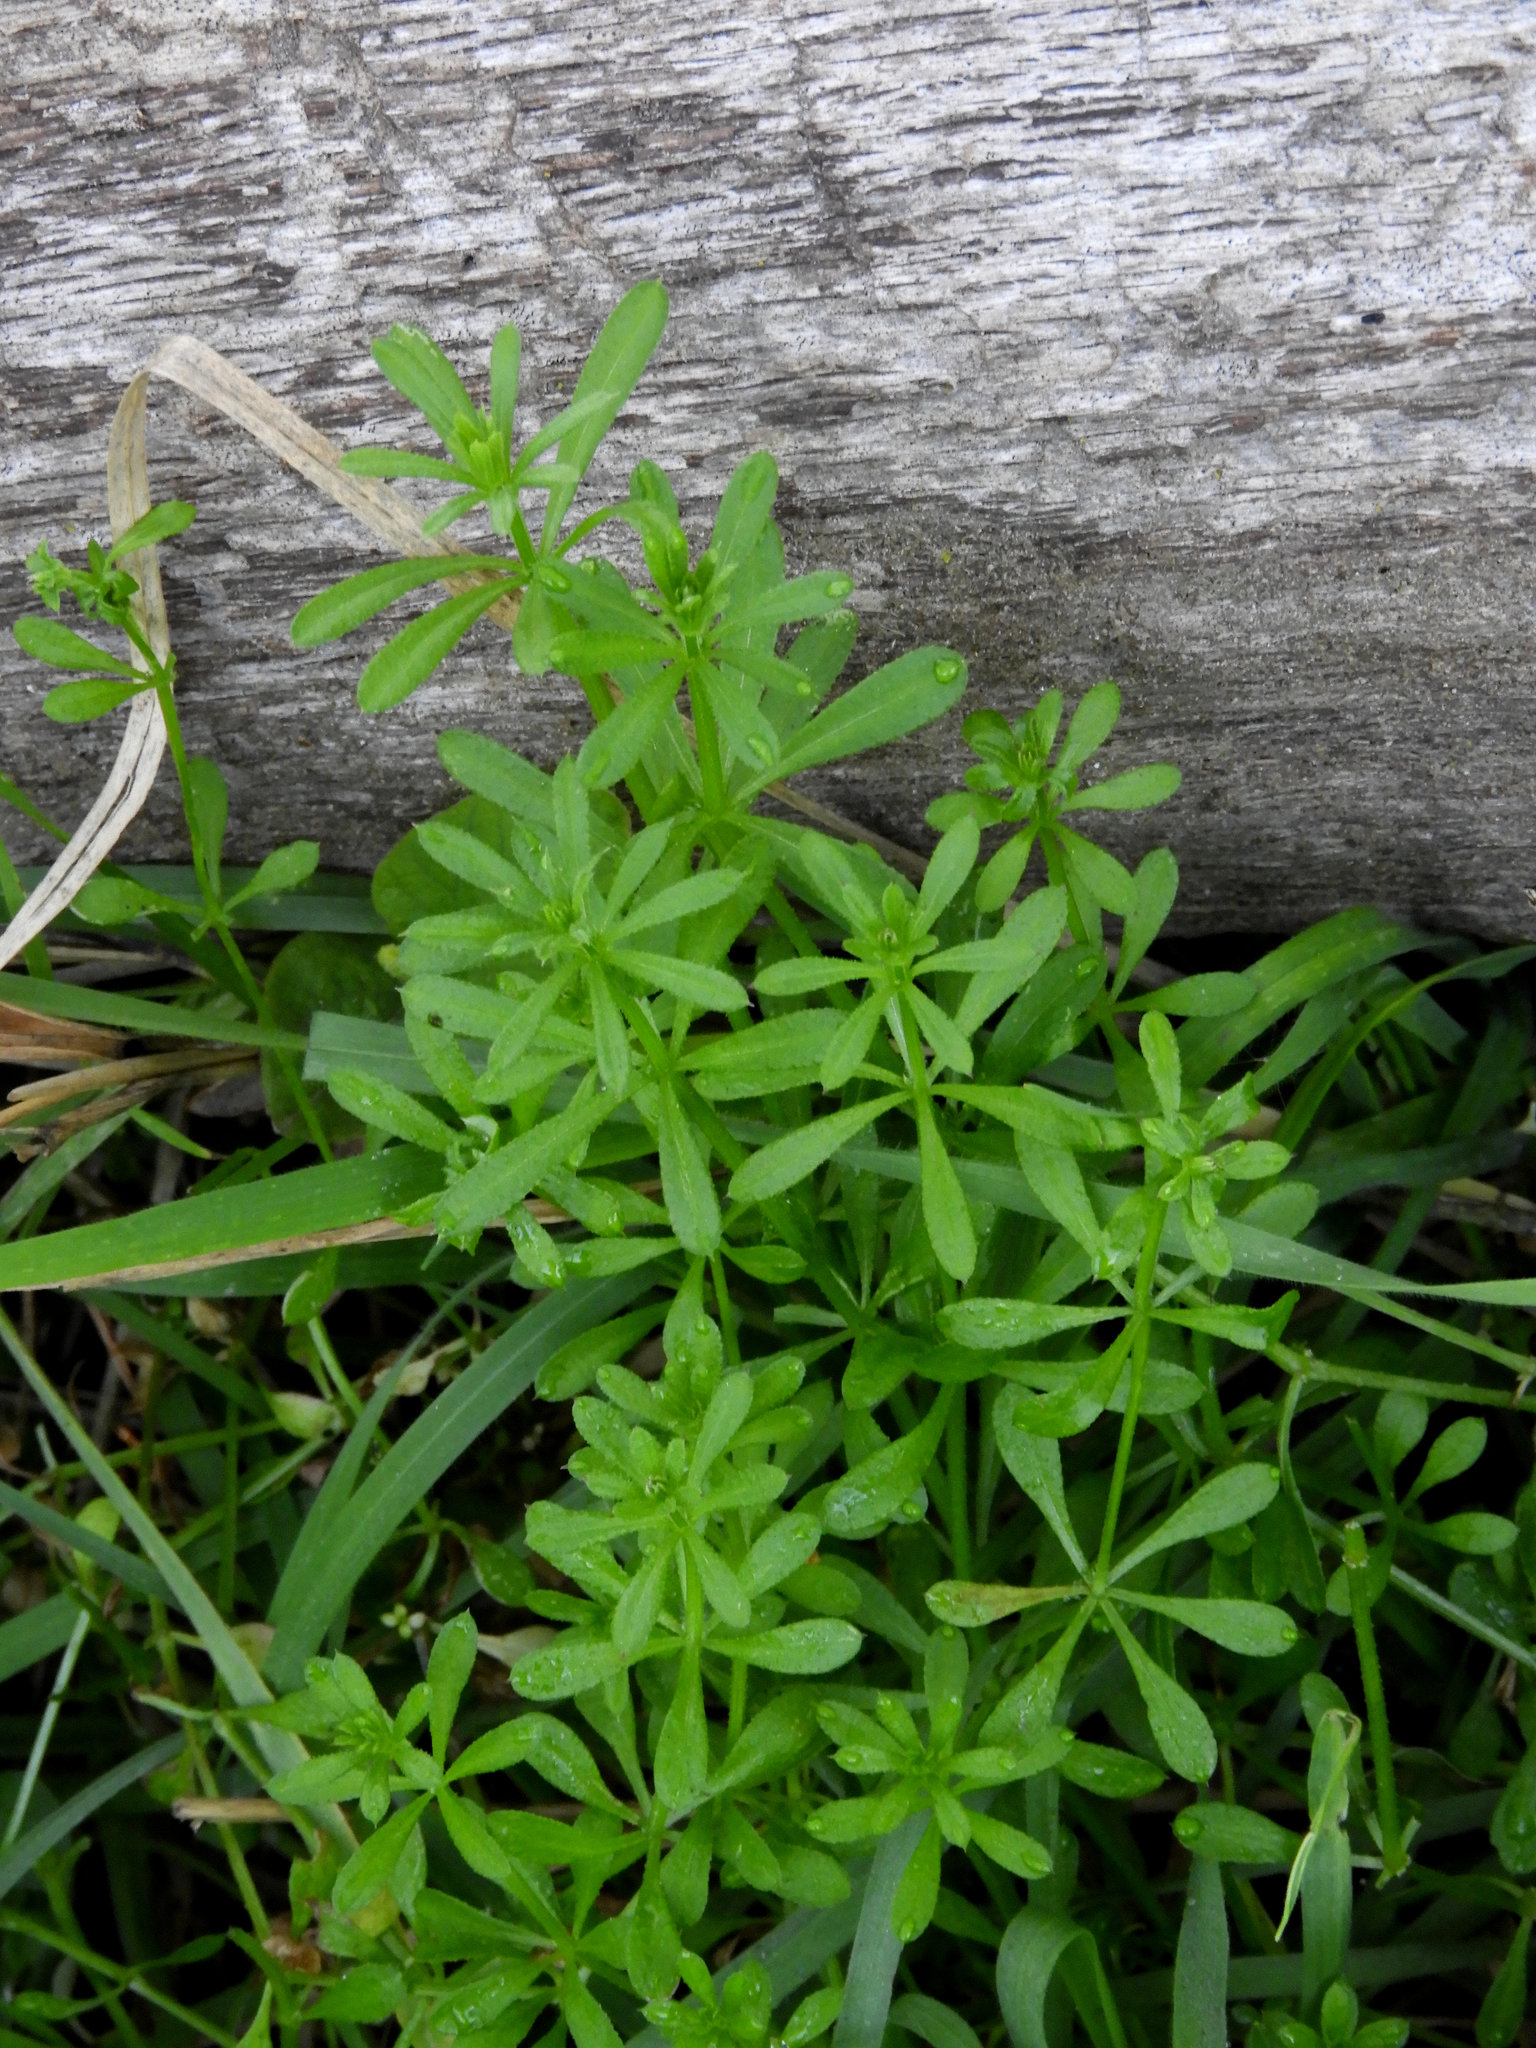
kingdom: Plantae
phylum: Tracheophyta
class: Magnoliopsida
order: Gentianales
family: Rubiaceae
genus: Galium
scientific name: Galium aparine
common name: Cleavers
